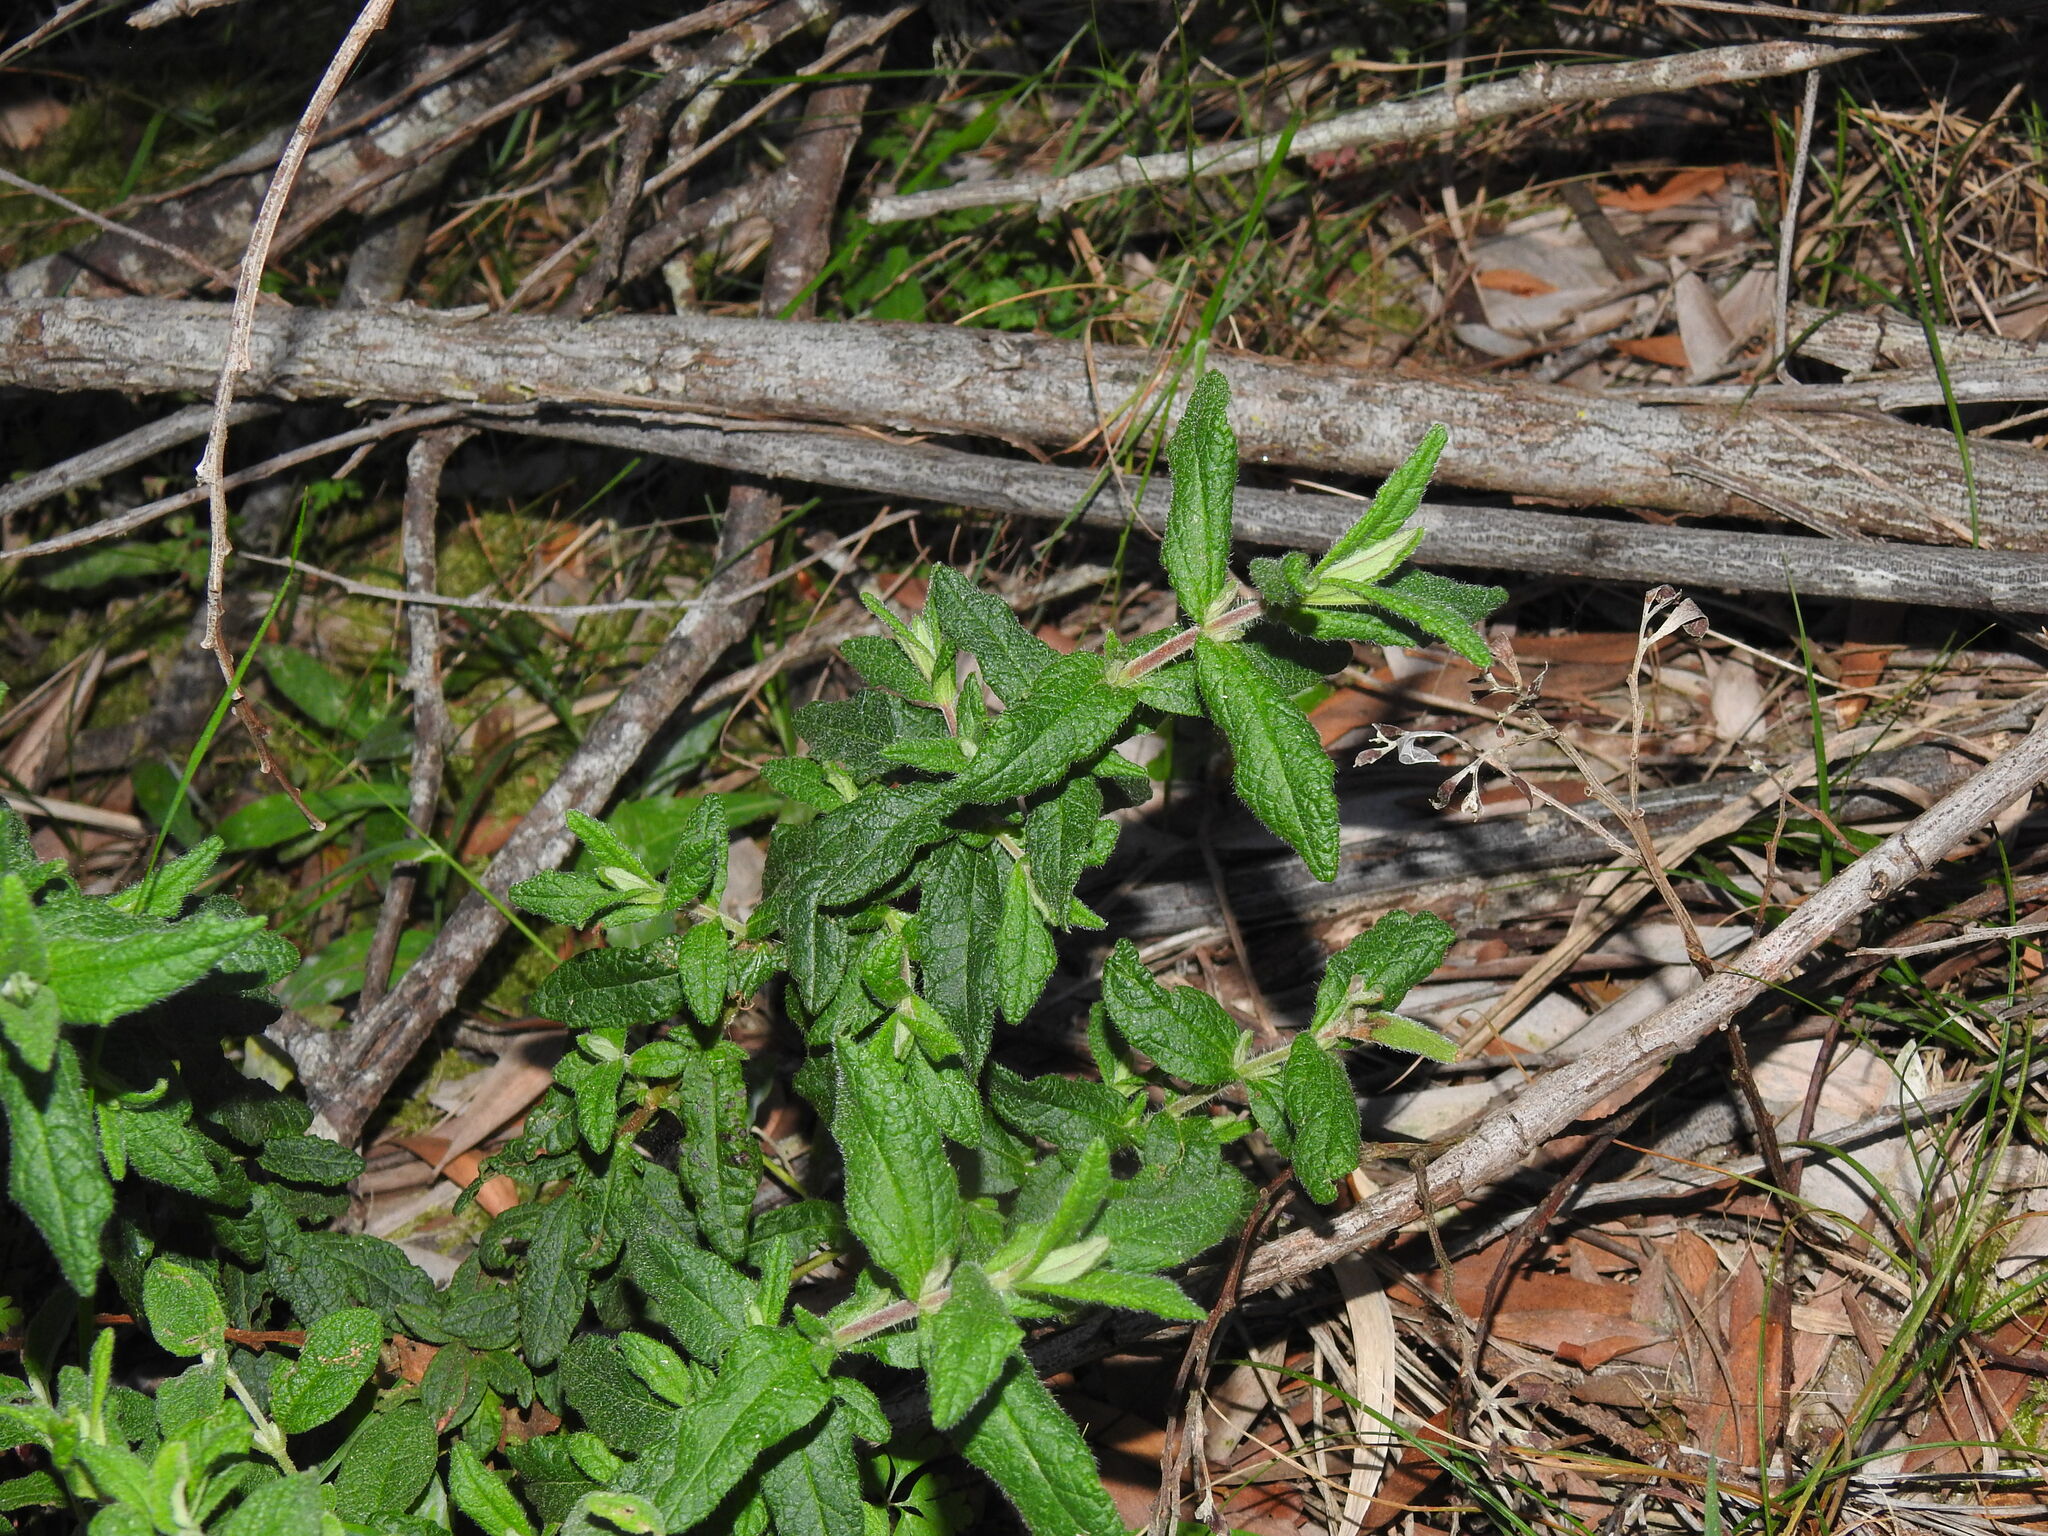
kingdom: Plantae
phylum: Tracheophyta
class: Magnoliopsida
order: Malvales
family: Cistaceae
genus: Cistus
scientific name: Cistus inflatus
